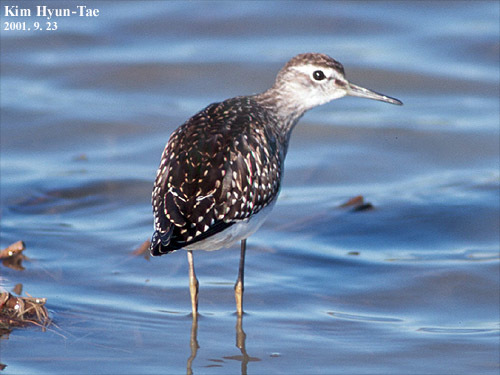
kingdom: Animalia
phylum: Chordata
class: Aves
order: Charadriiformes
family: Scolopacidae
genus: Tringa
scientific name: Tringa glareola
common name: Wood sandpiper
